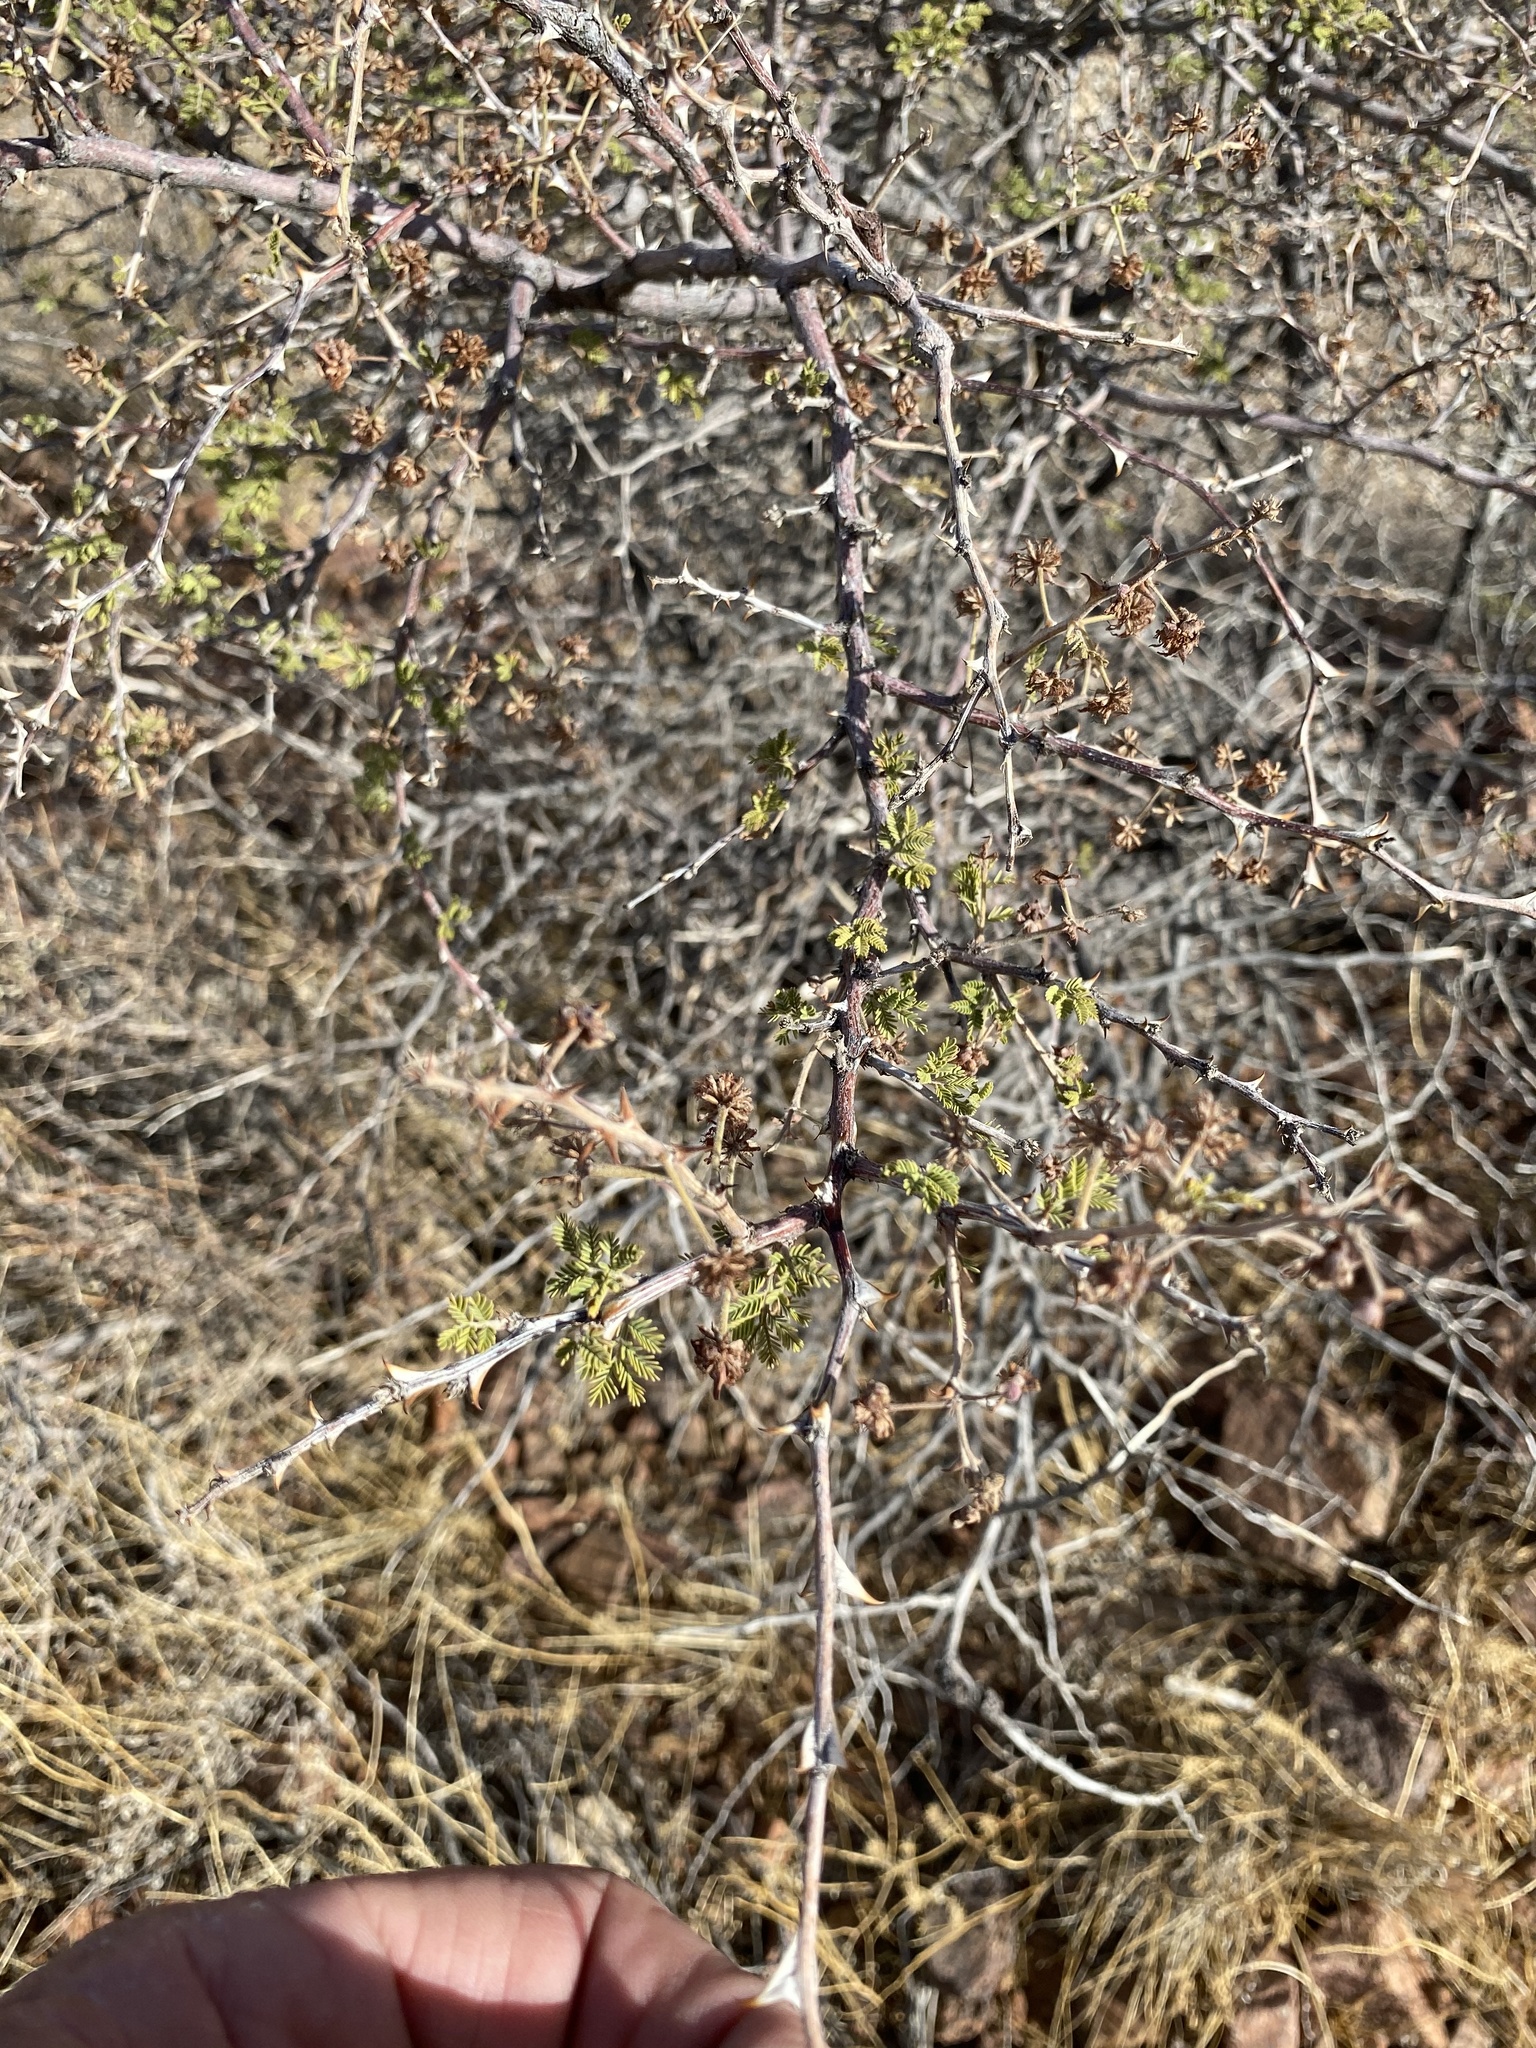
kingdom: Plantae
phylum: Tracheophyta
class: Magnoliopsida
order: Fabales
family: Fabaceae
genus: Mimosa
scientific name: Mimosa aculeaticarpa
